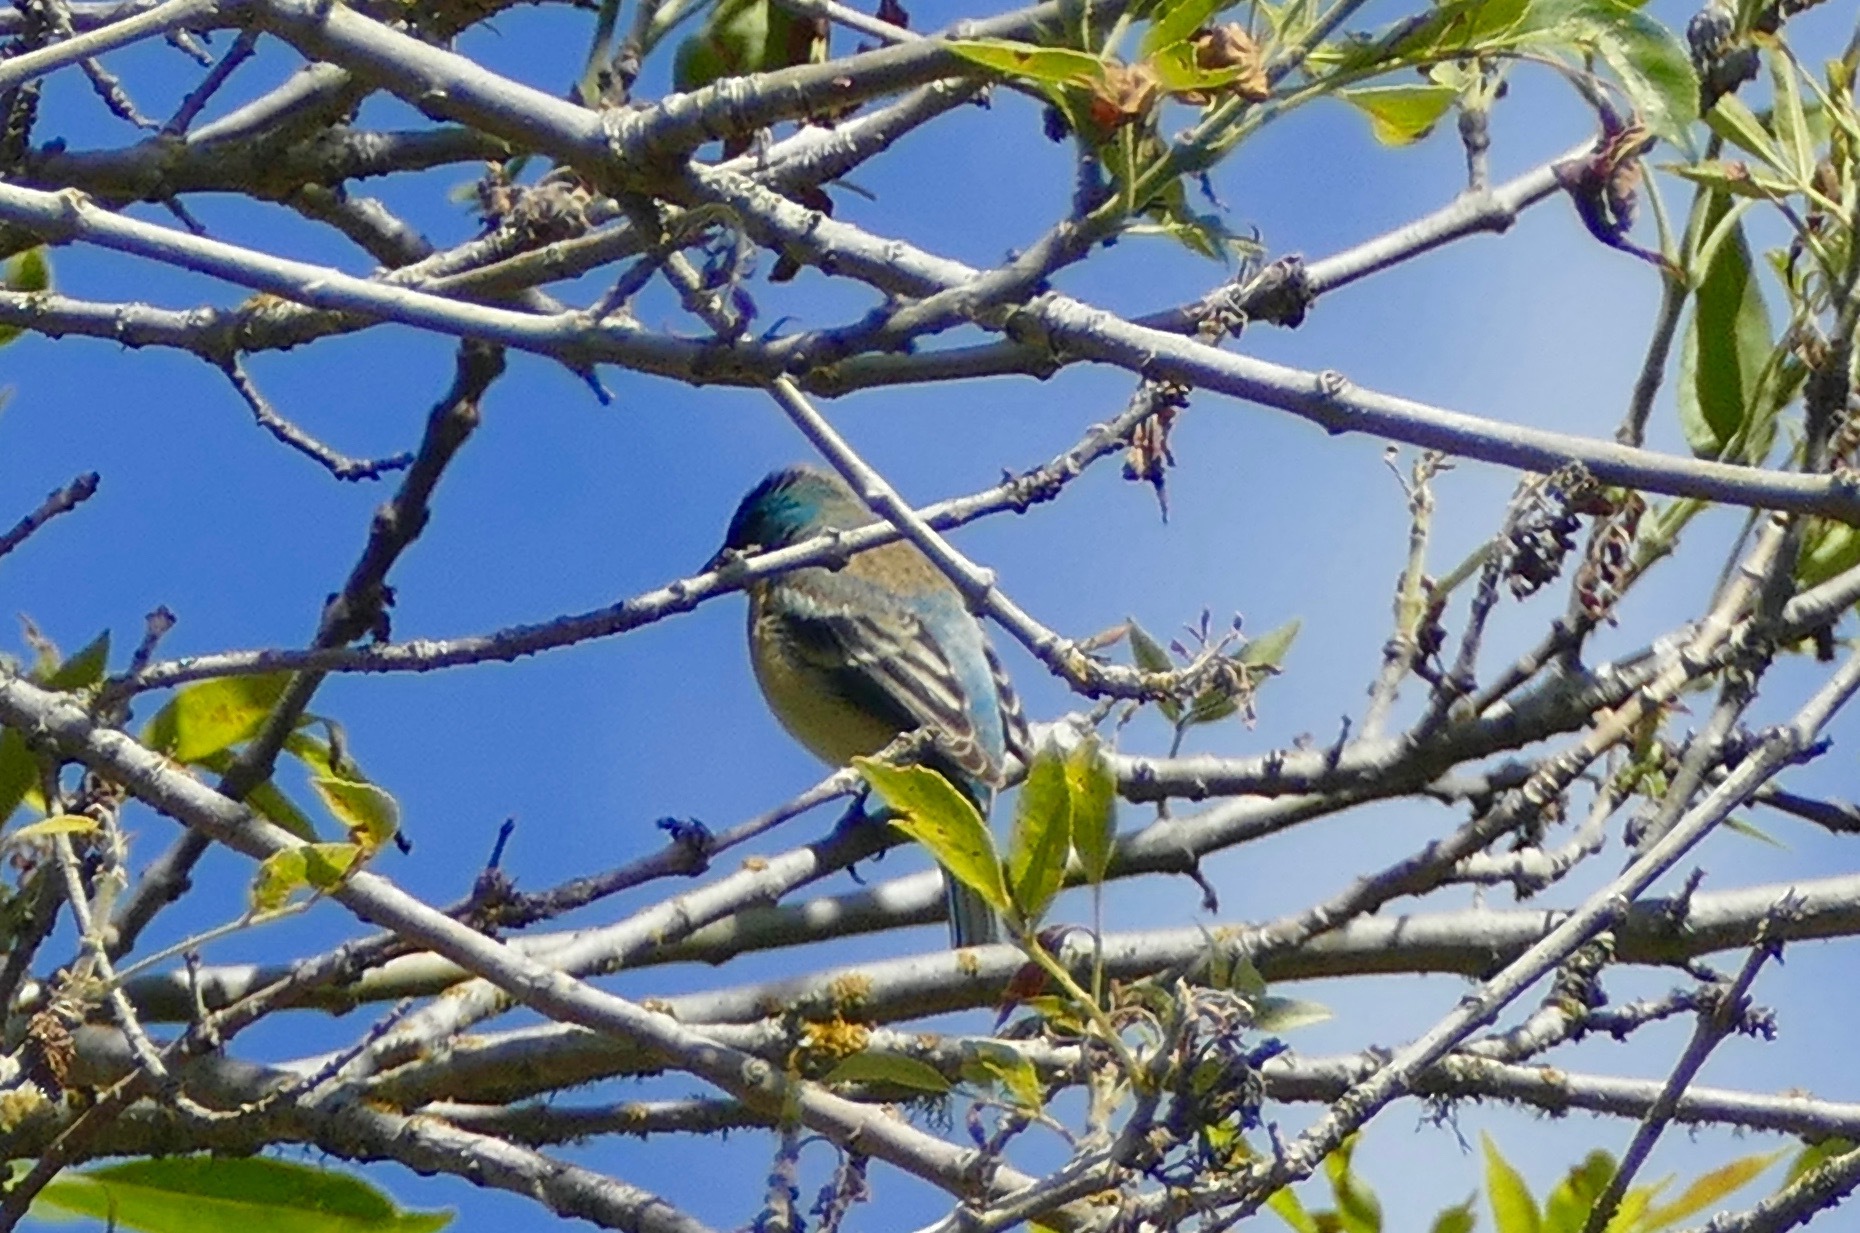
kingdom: Animalia
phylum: Chordata
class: Aves
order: Passeriformes
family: Cardinalidae
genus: Passerina
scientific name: Passerina amoena
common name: Lazuli bunting
